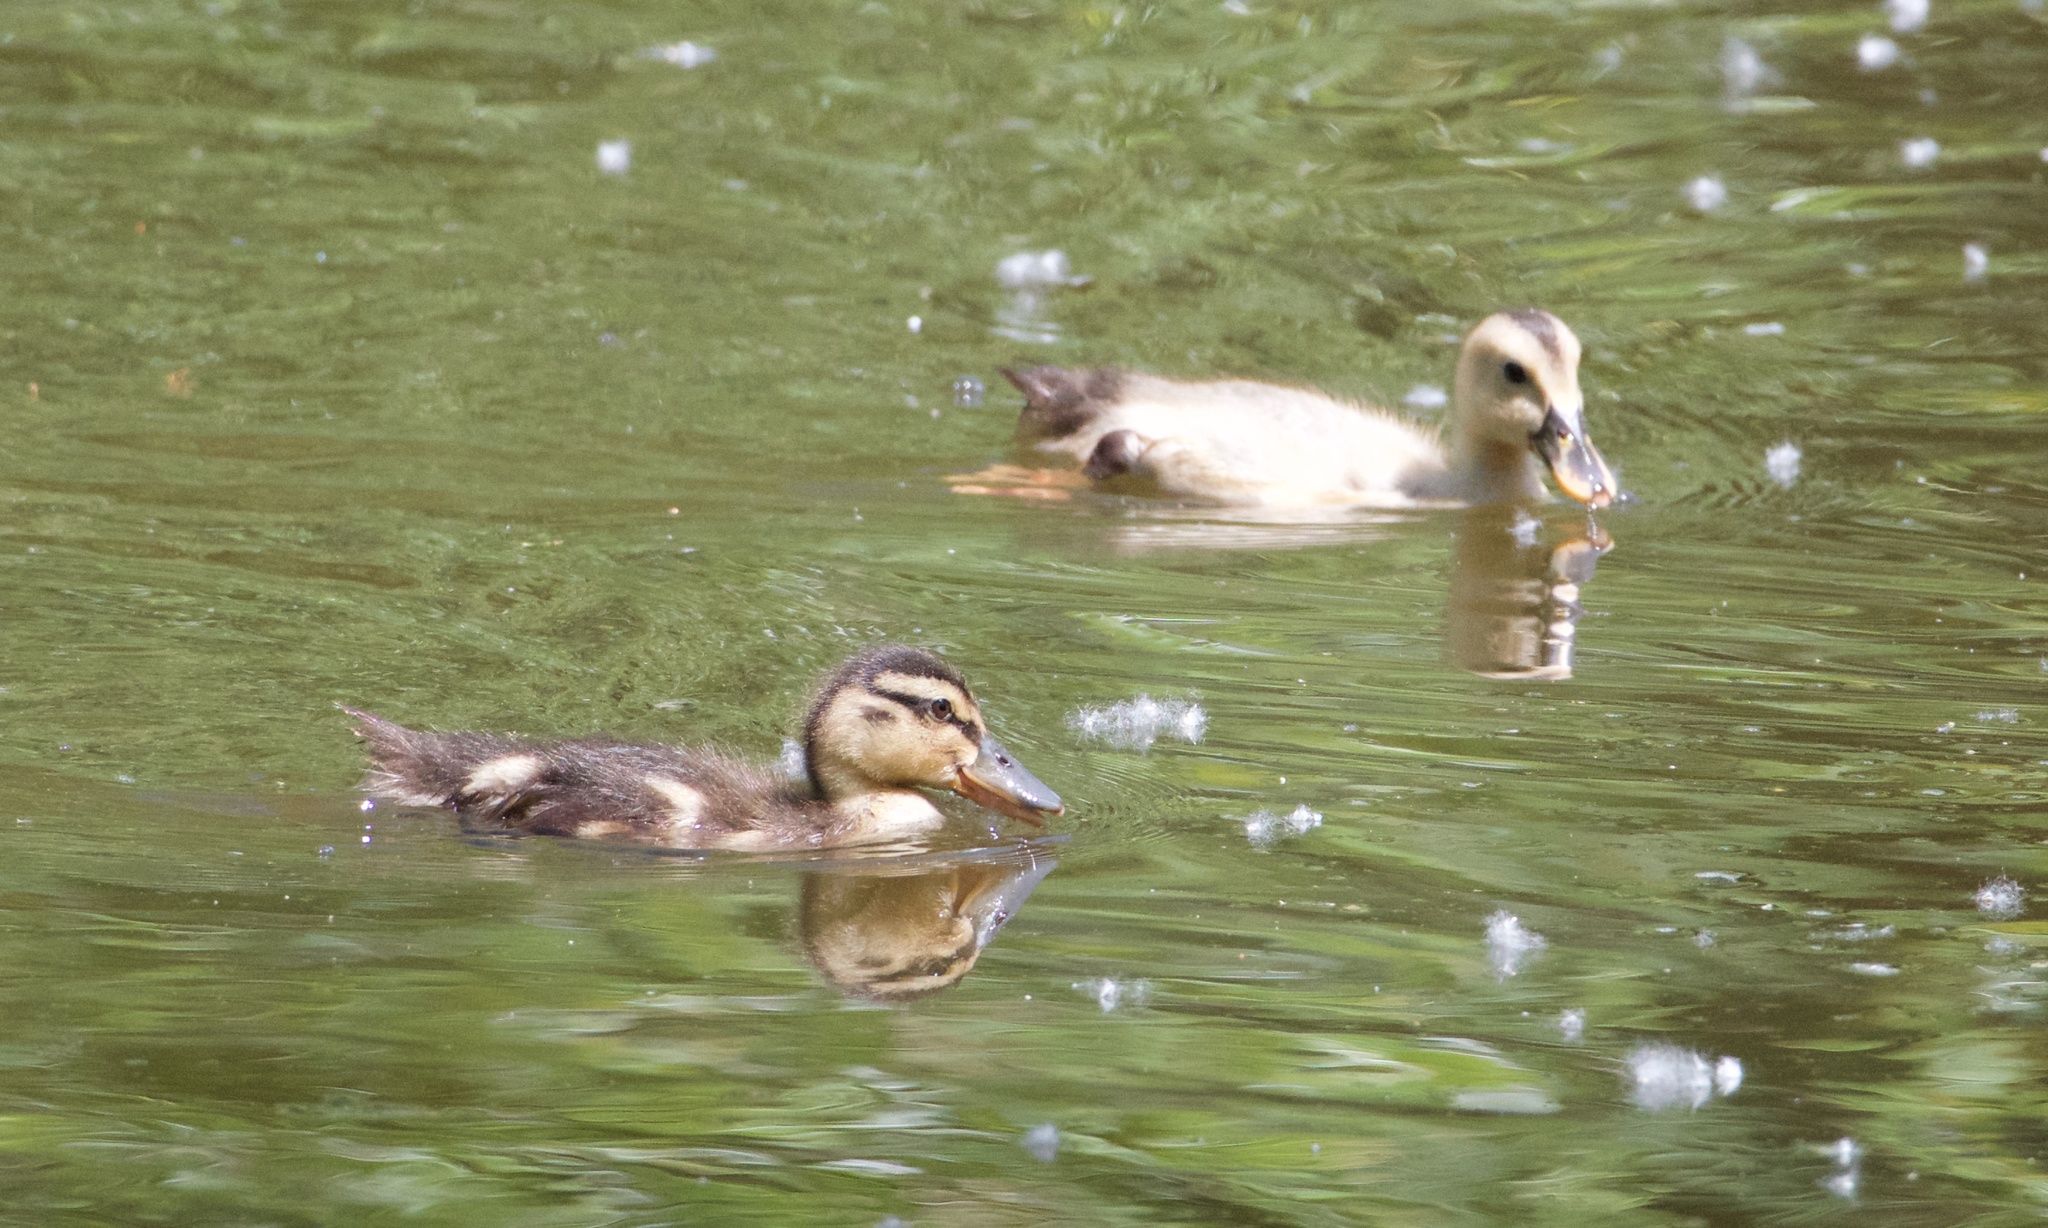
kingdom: Animalia
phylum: Chordata
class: Aves
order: Anseriformes
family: Anatidae
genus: Anas
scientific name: Anas platyrhynchos
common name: Mallard
